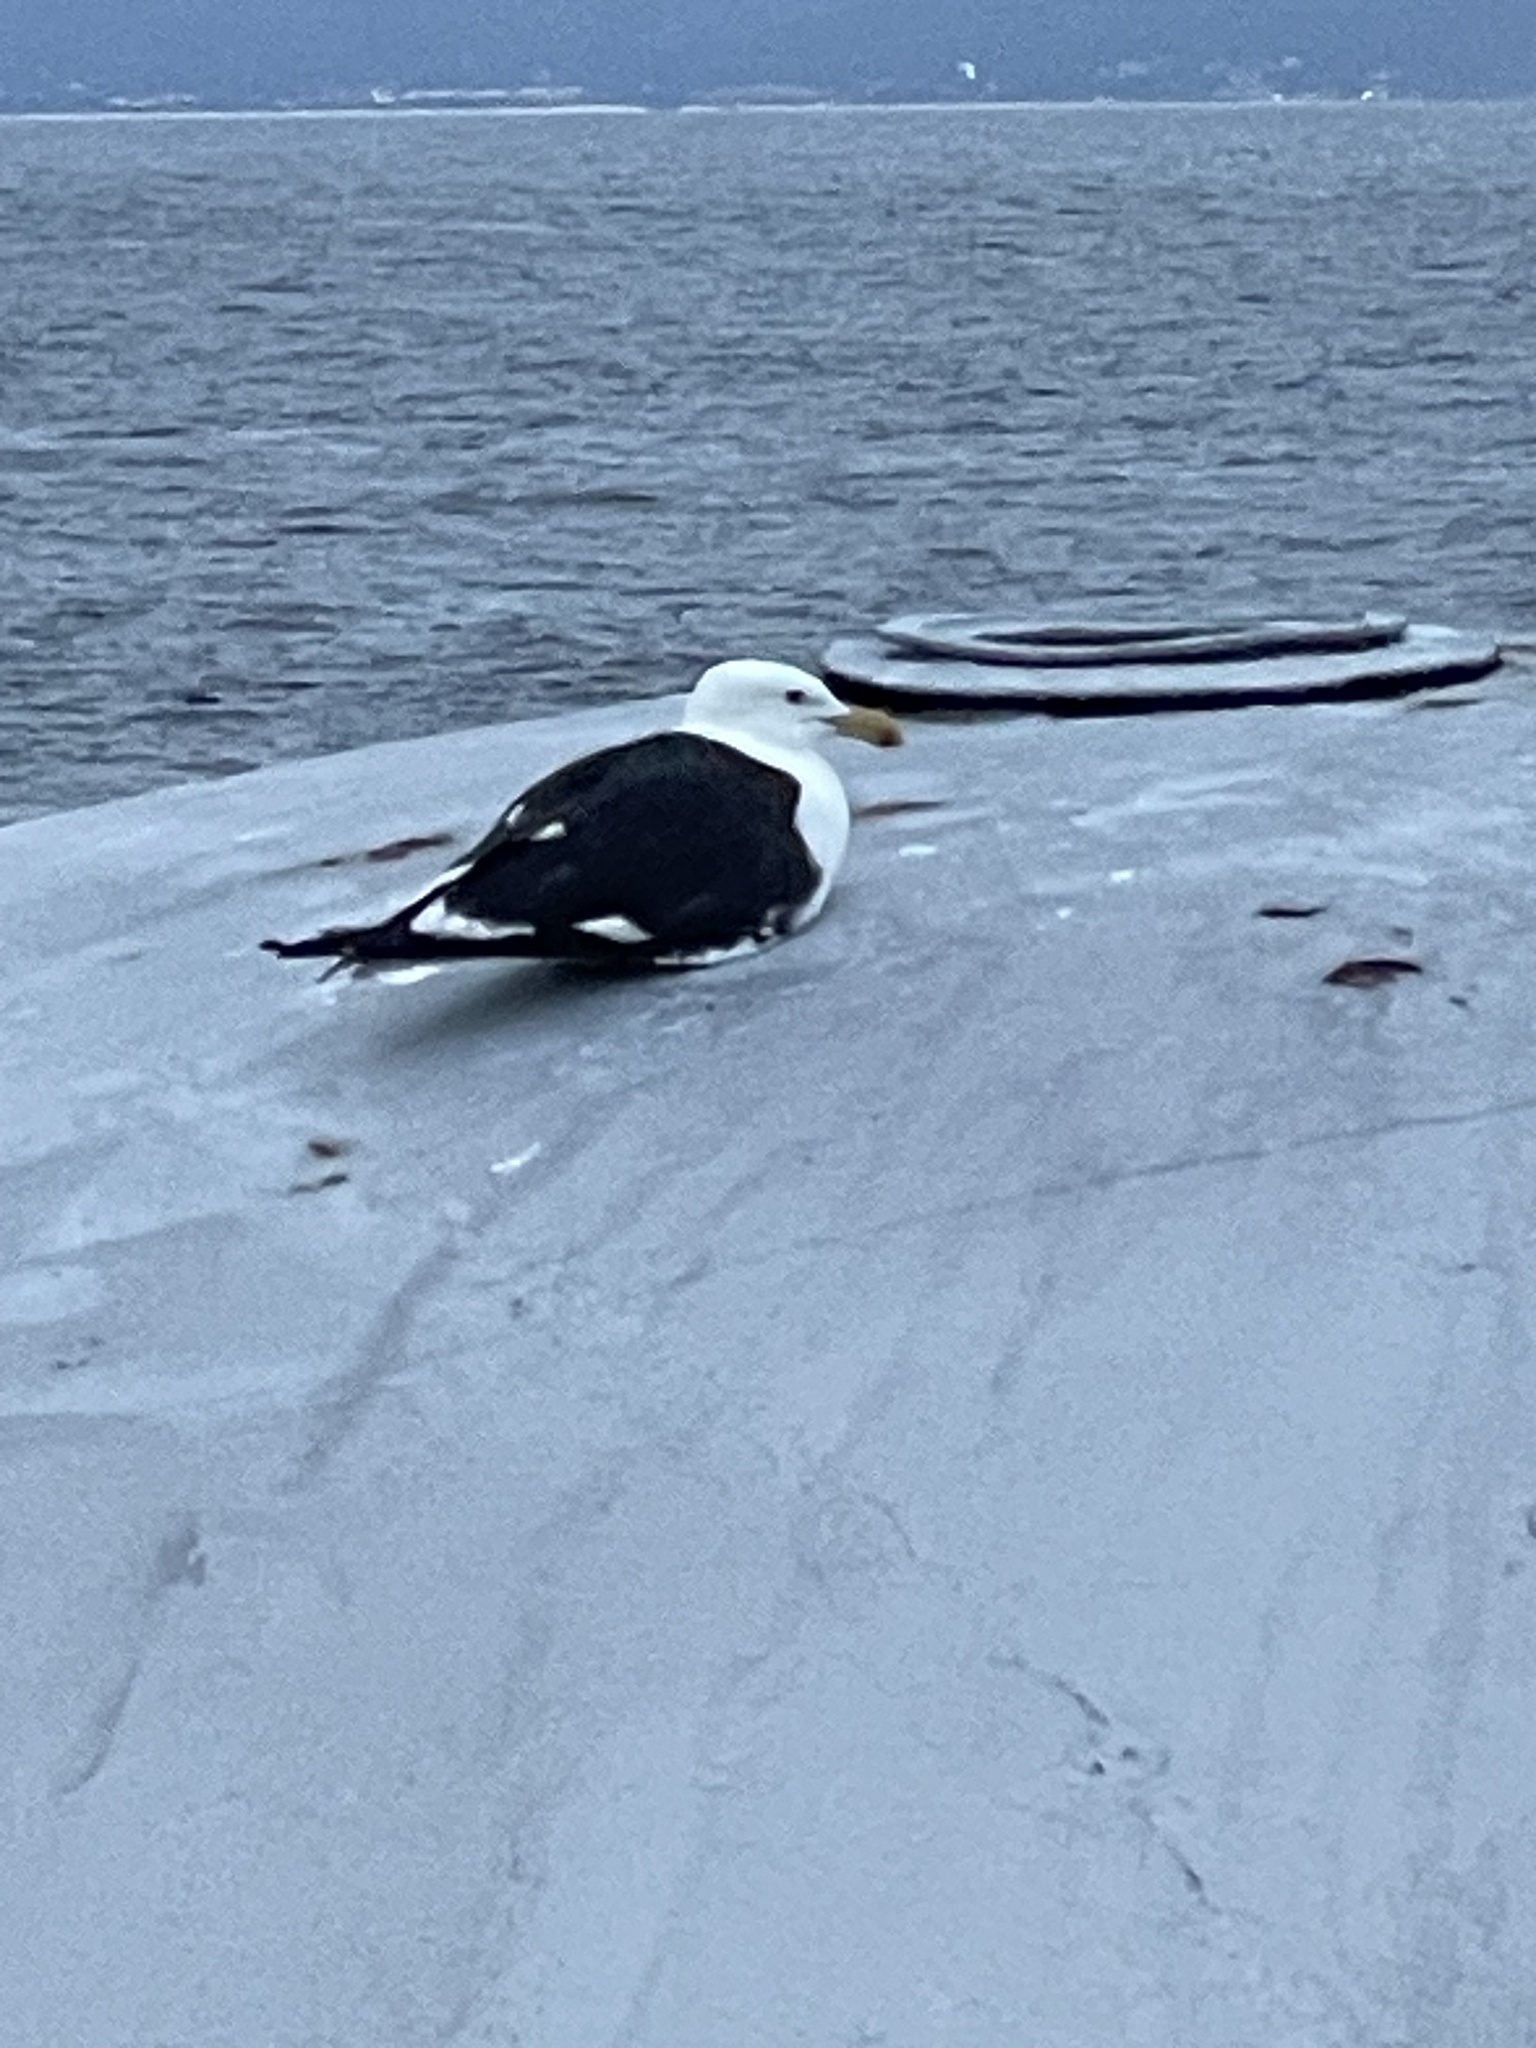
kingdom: Animalia
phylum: Chordata
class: Aves
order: Charadriiformes
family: Laridae
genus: Larus
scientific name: Larus dominicanus
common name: Kelp gull
